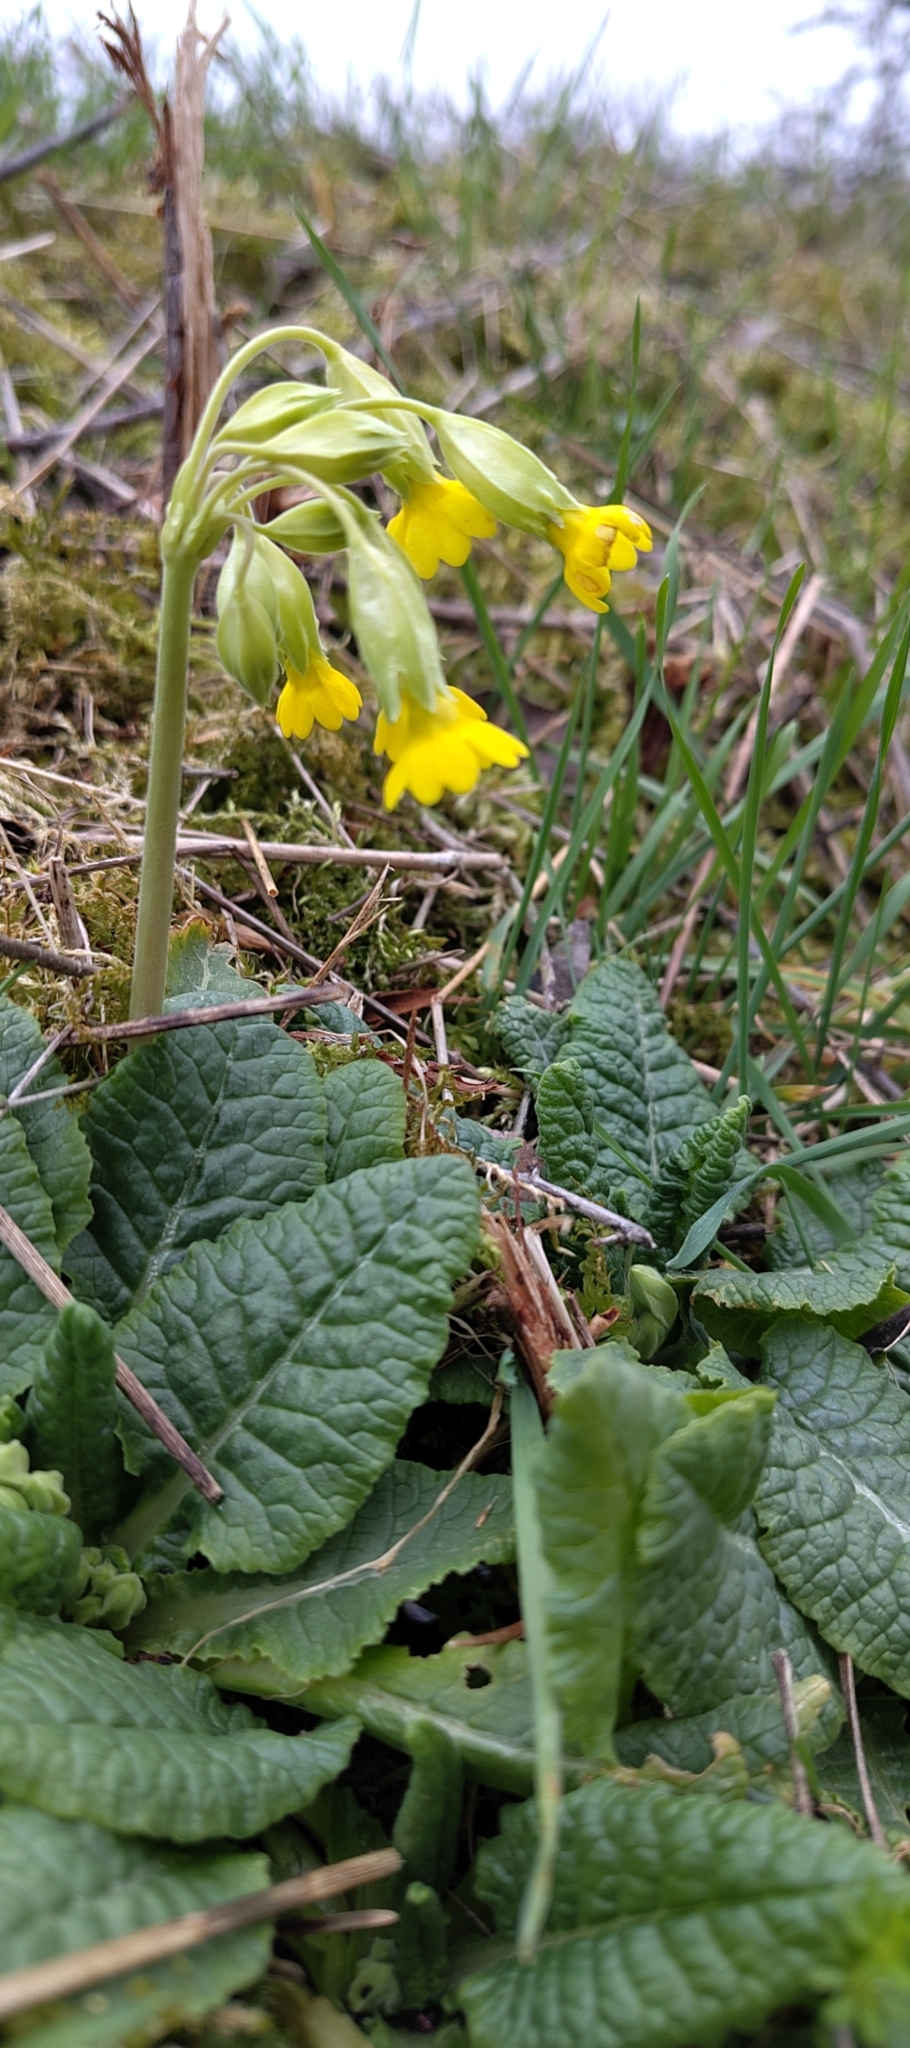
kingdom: Plantae
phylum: Tracheophyta
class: Magnoliopsida
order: Ericales
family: Primulaceae
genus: Primula
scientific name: Primula veris
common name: Cowslip
